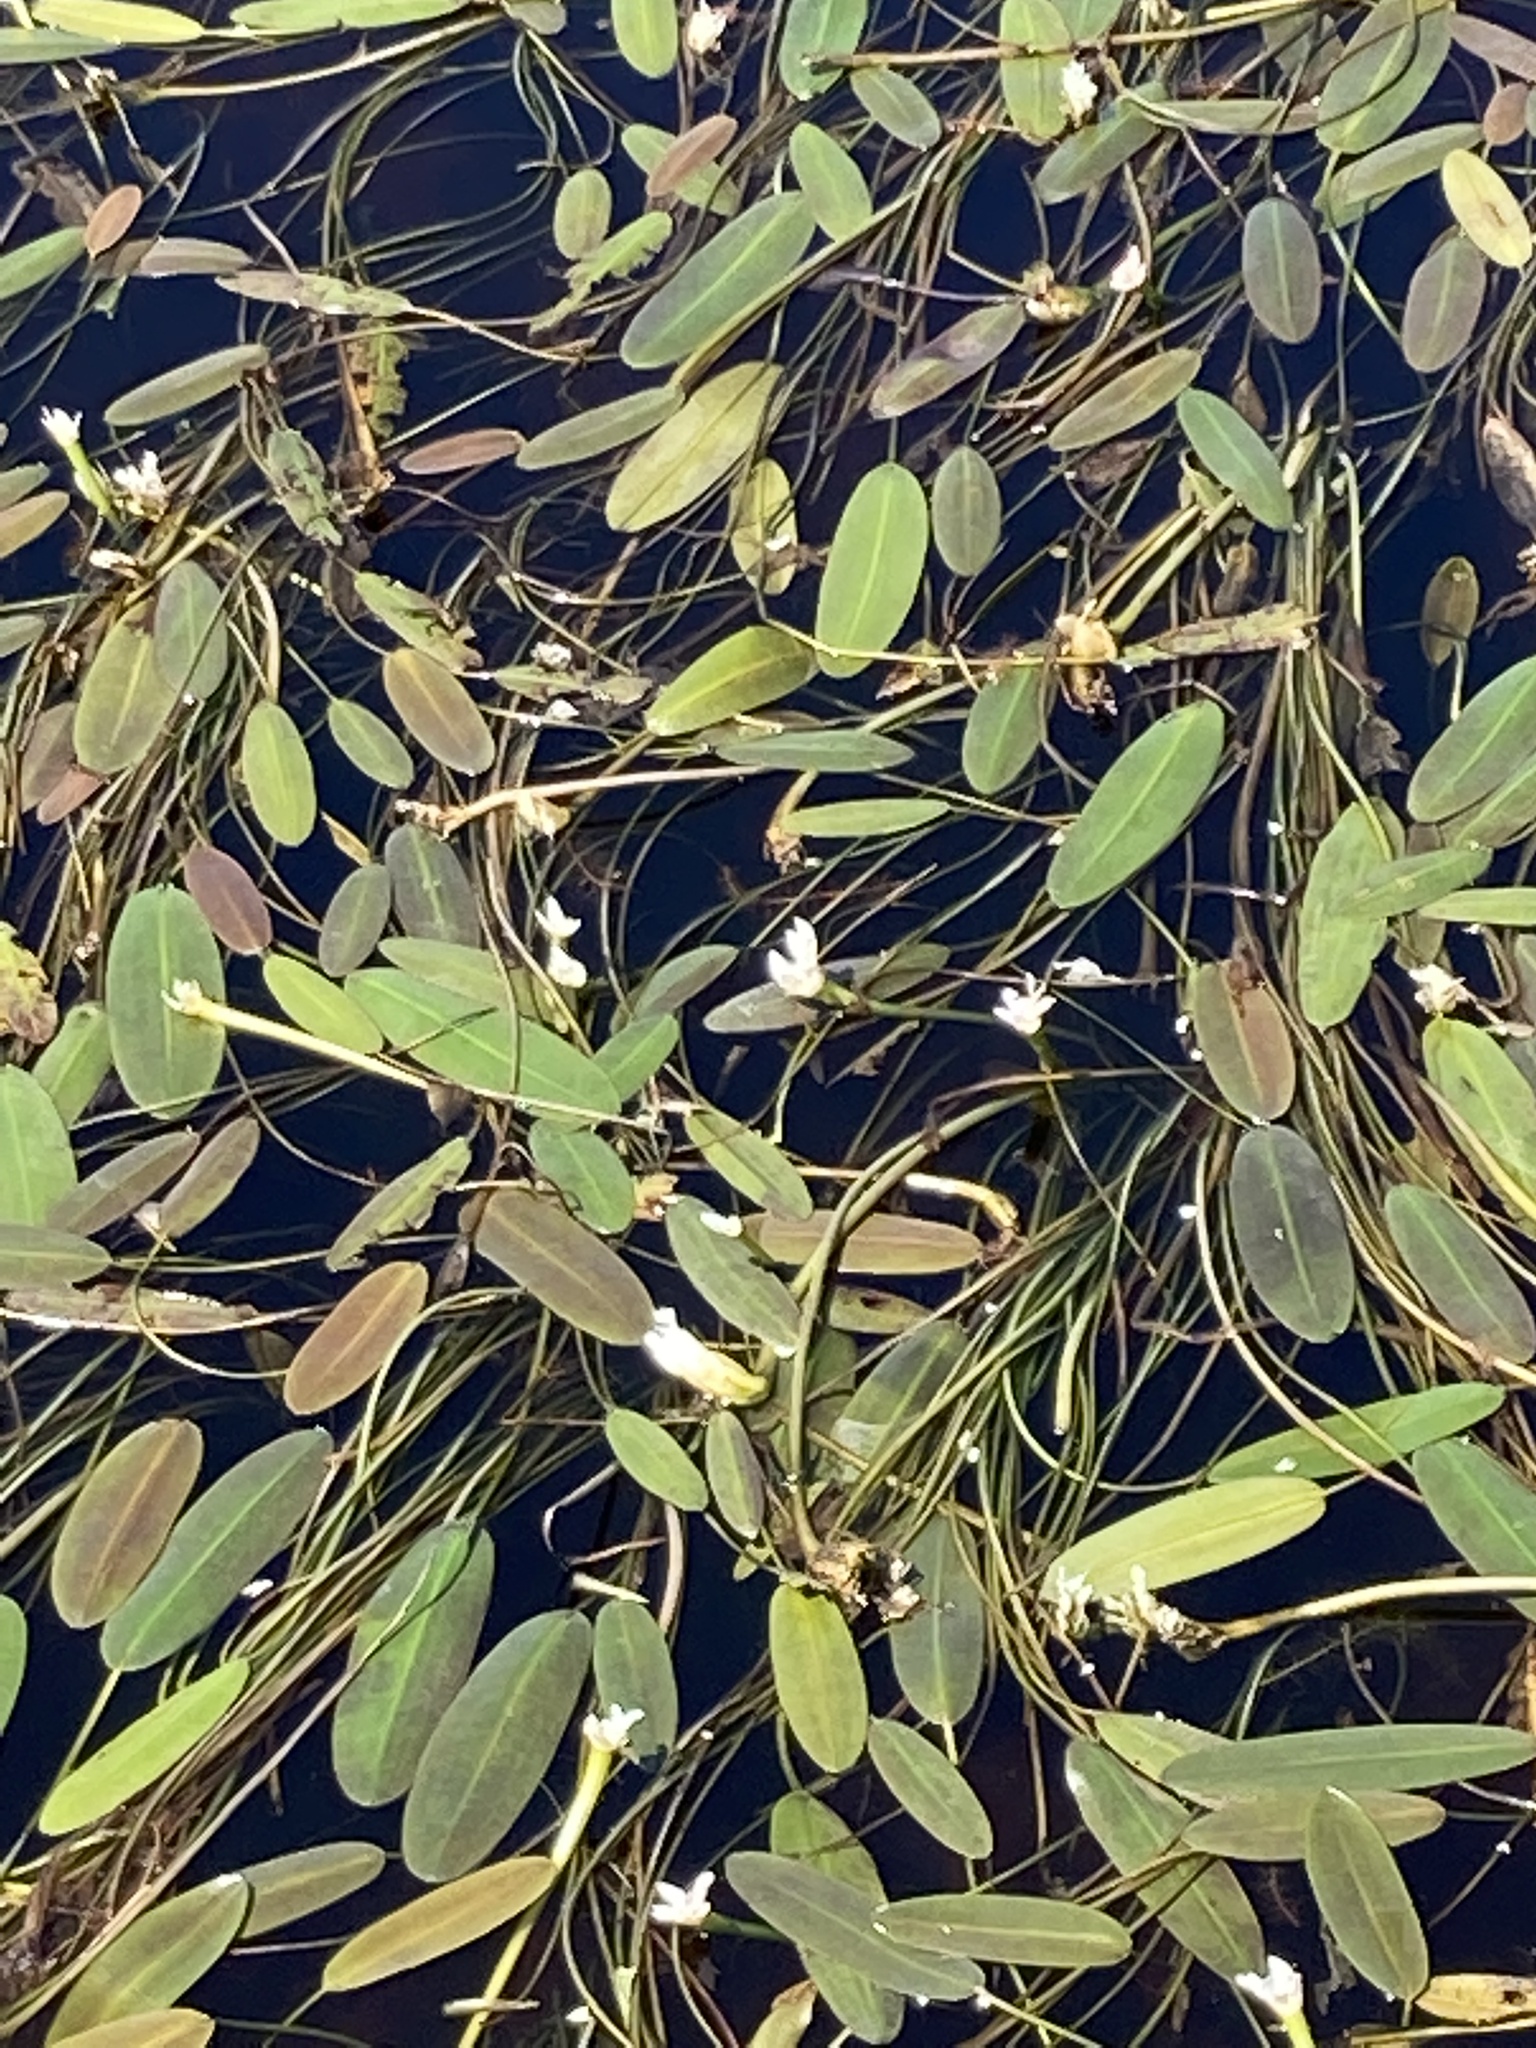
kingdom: Plantae
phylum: Tracheophyta
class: Liliopsida
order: Alismatales
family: Aponogetonaceae
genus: Aponogeton
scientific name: Aponogeton distachyos
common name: Cape-pondweed
